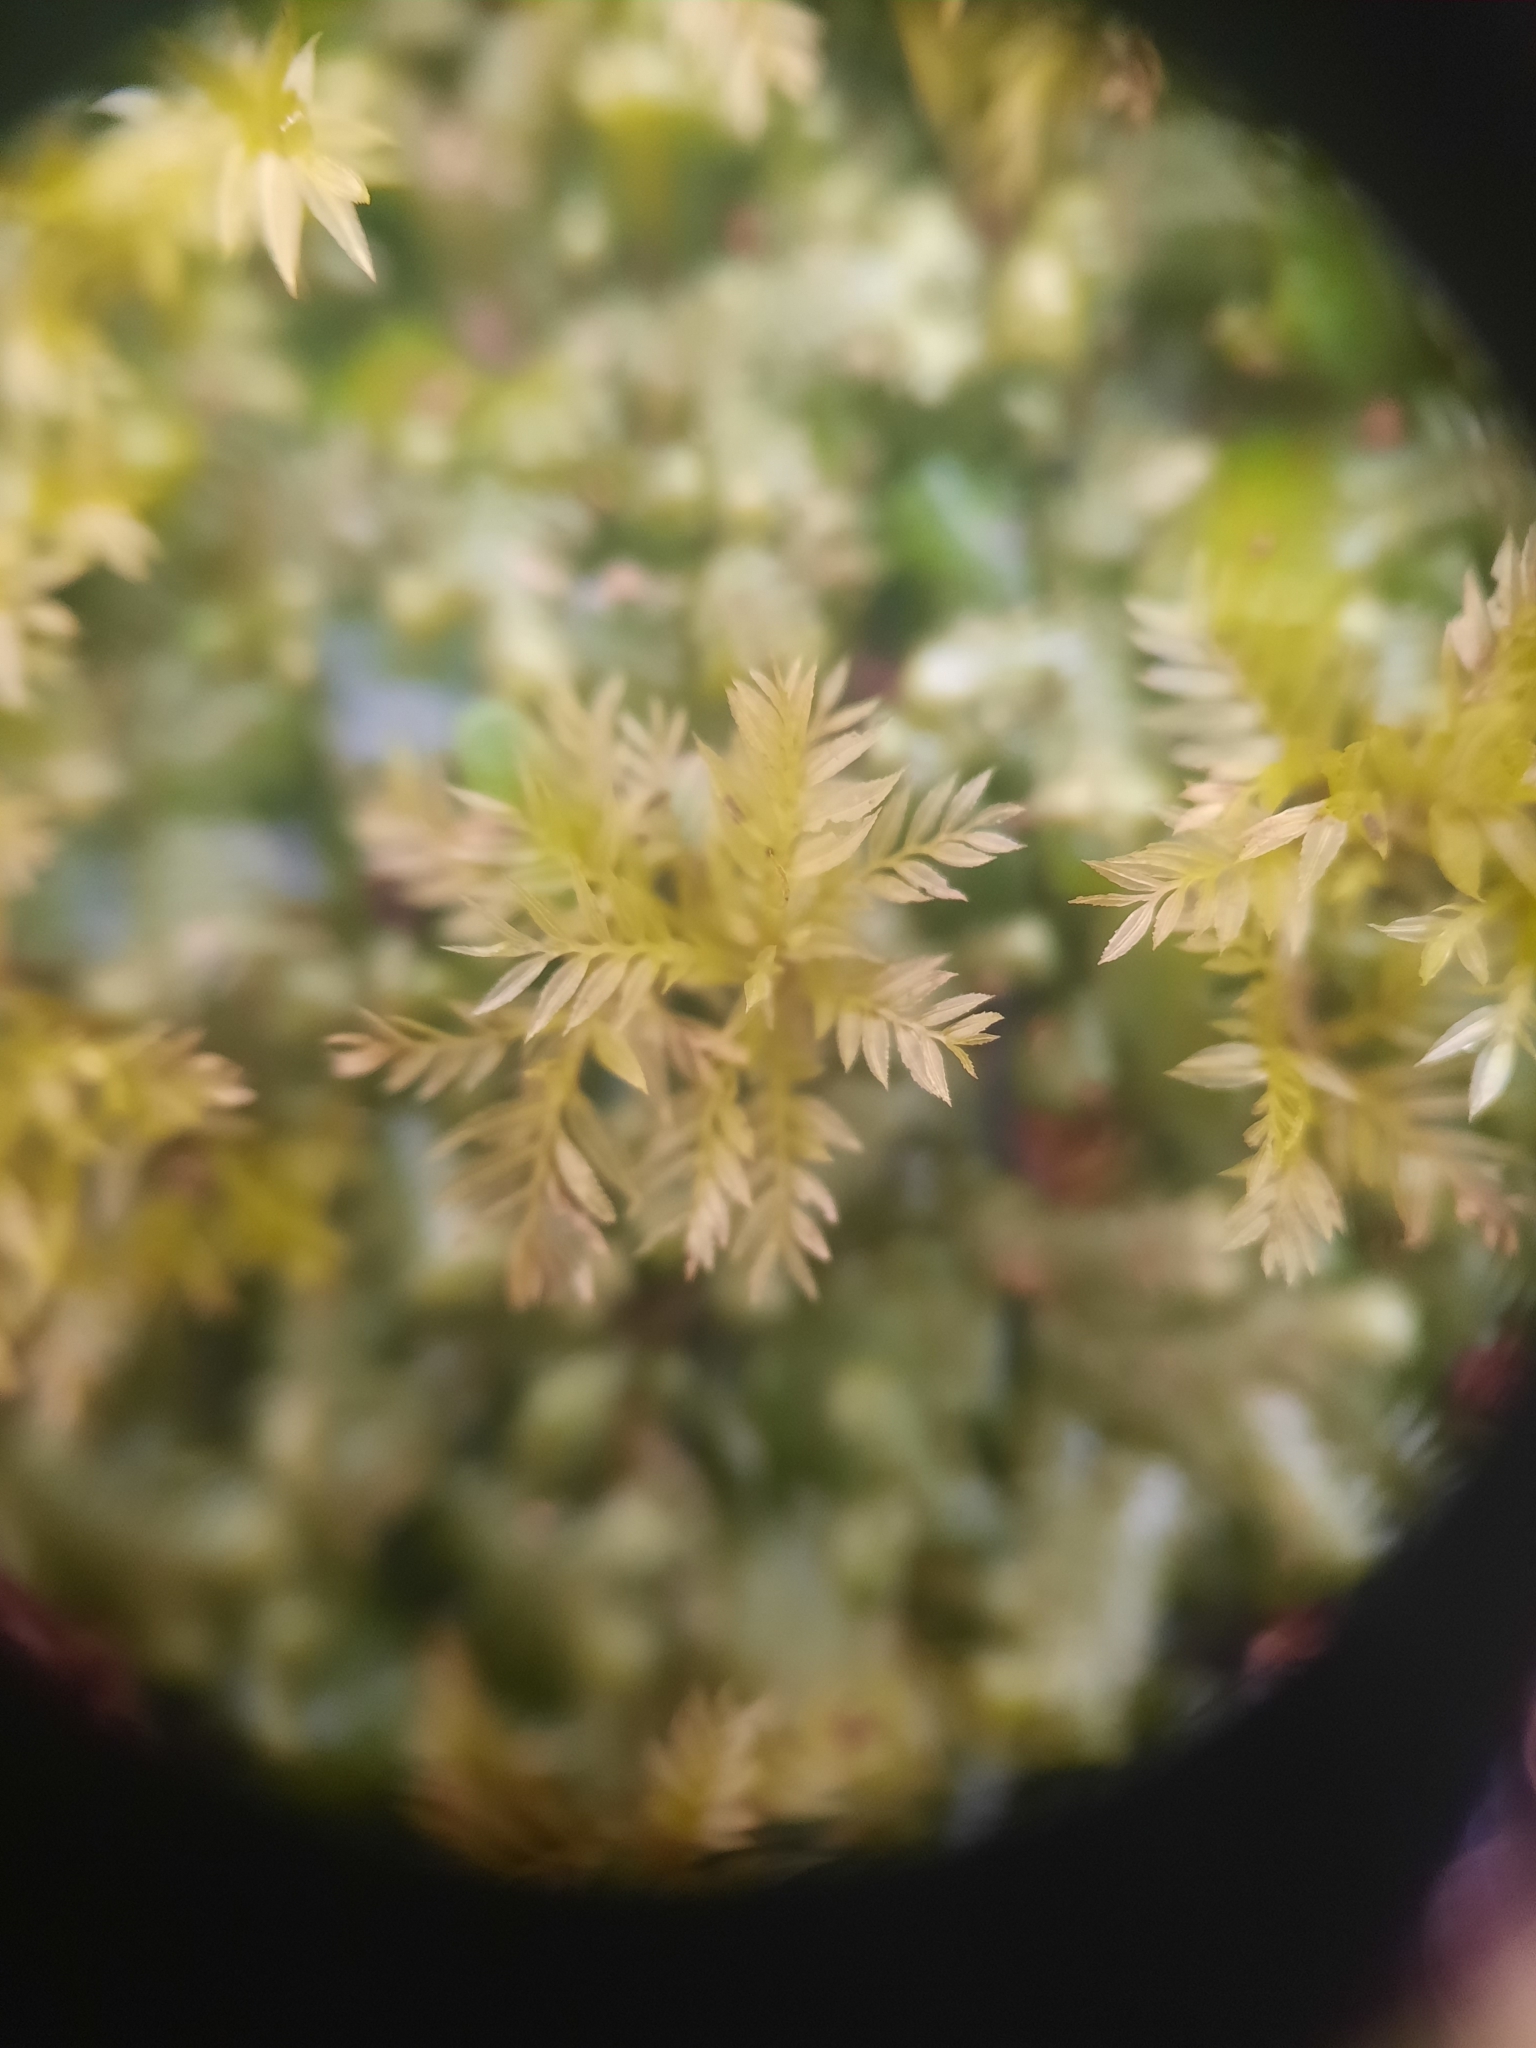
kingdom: Plantae
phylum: Bryophyta
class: Bryopsida
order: Aulacomniales
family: Aulacomniaceae
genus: Hymenodontopsis
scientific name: Hymenodontopsis bifaria
